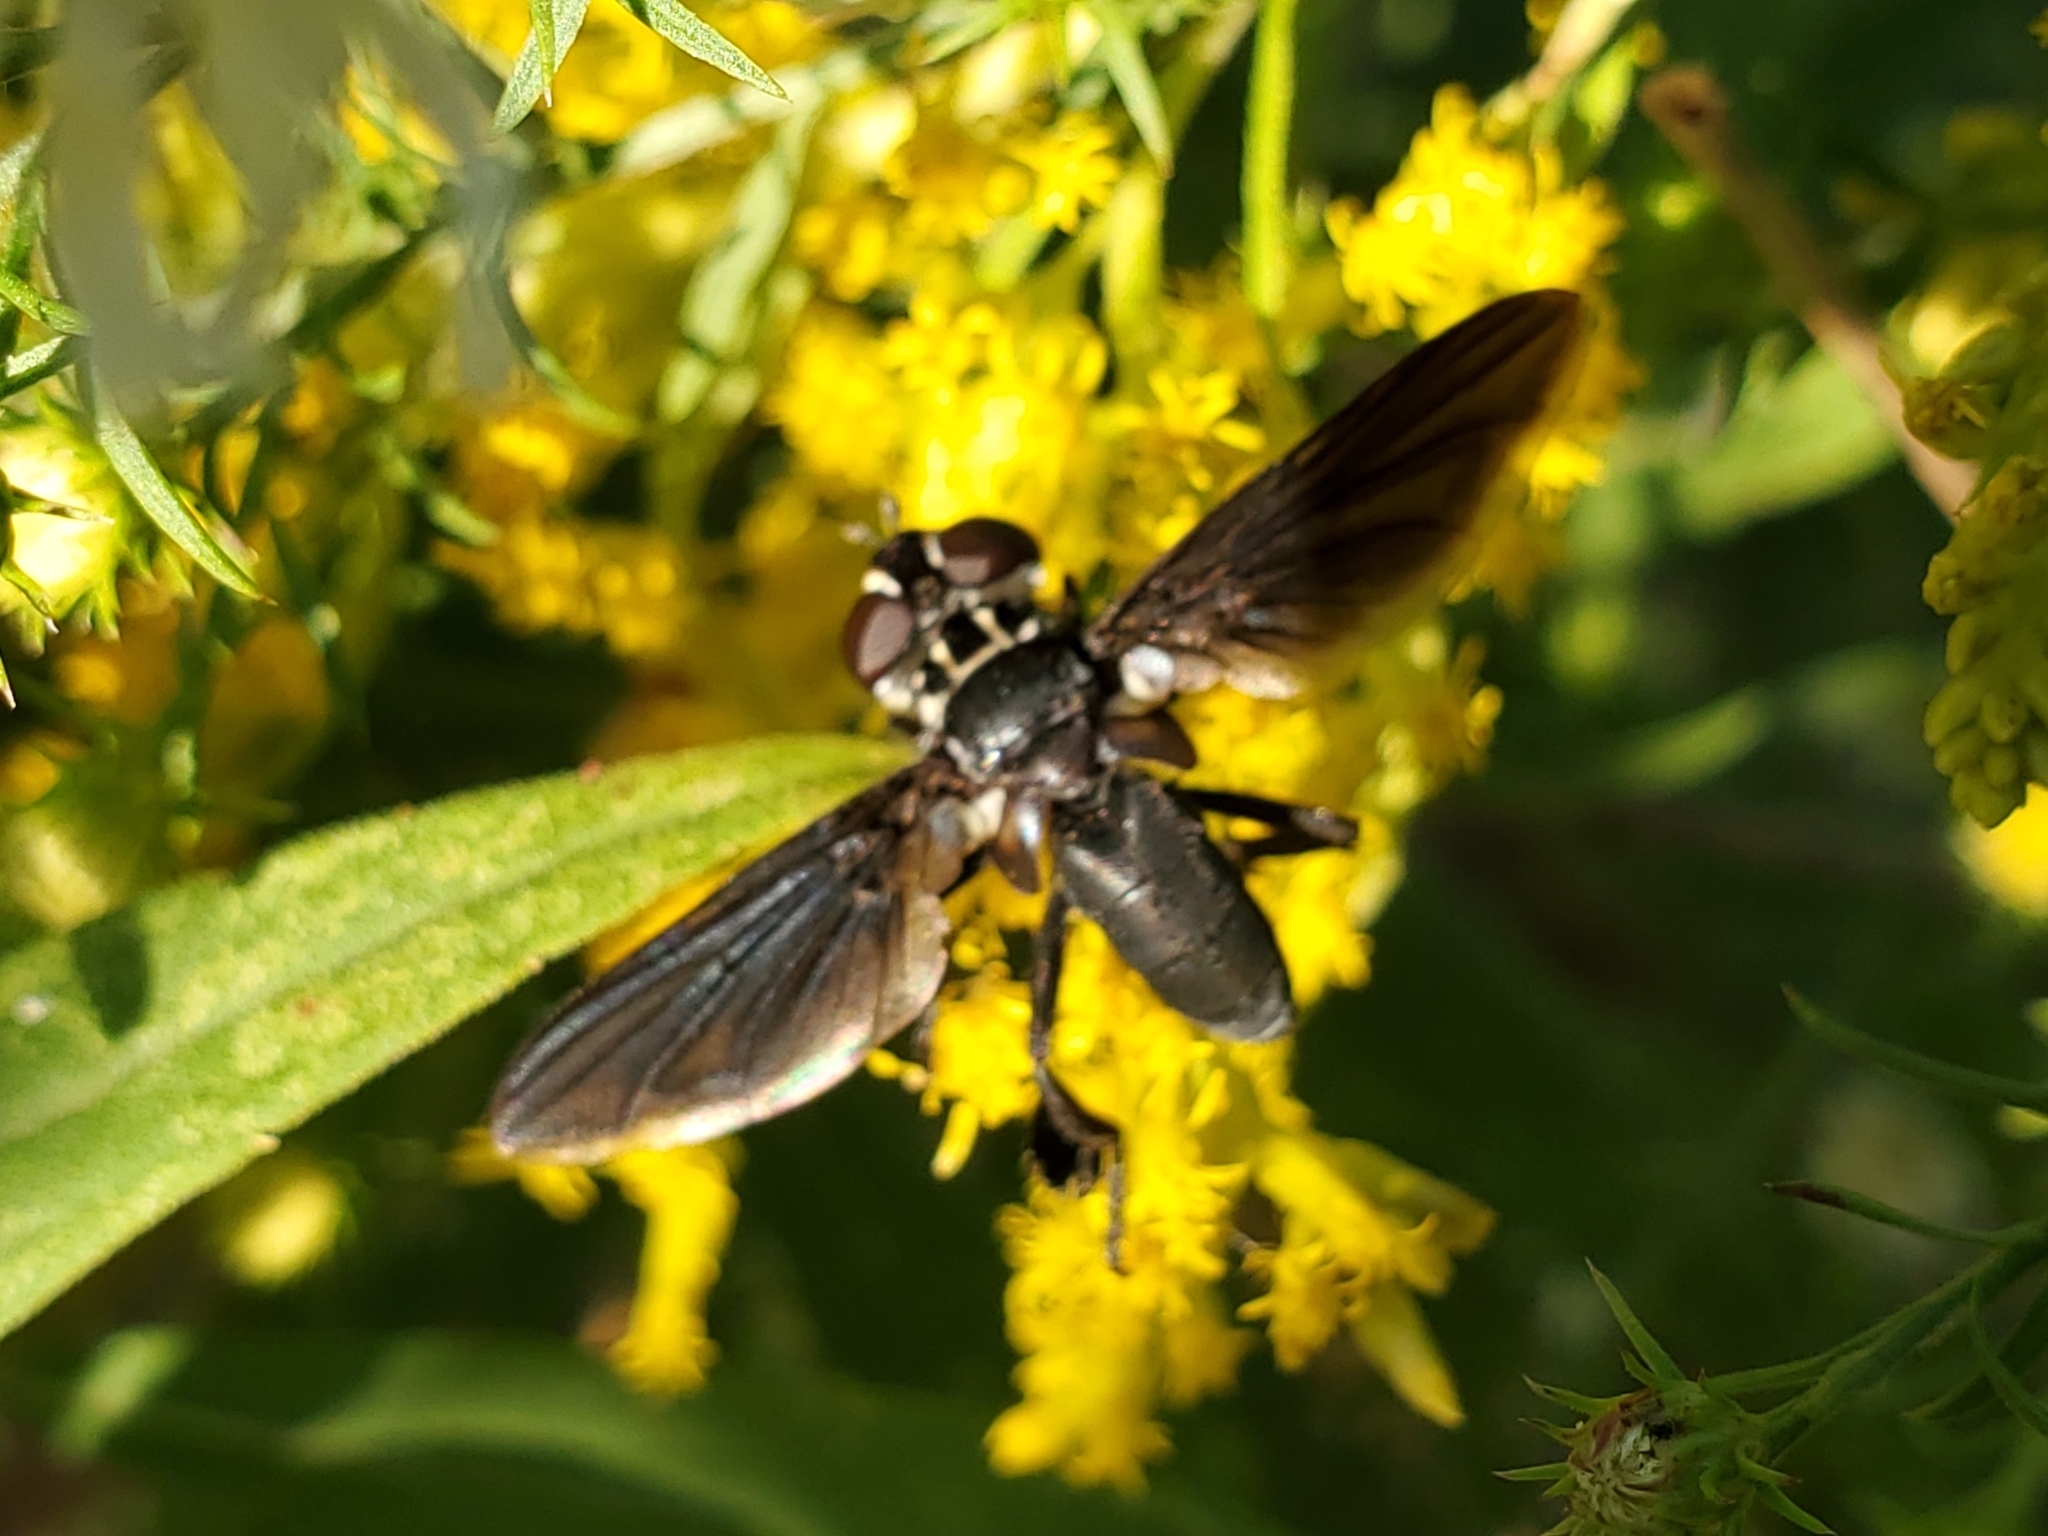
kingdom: Animalia
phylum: Arthropoda
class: Insecta
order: Diptera
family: Tachinidae
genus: Trichopoda
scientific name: Trichopoda lanipes
